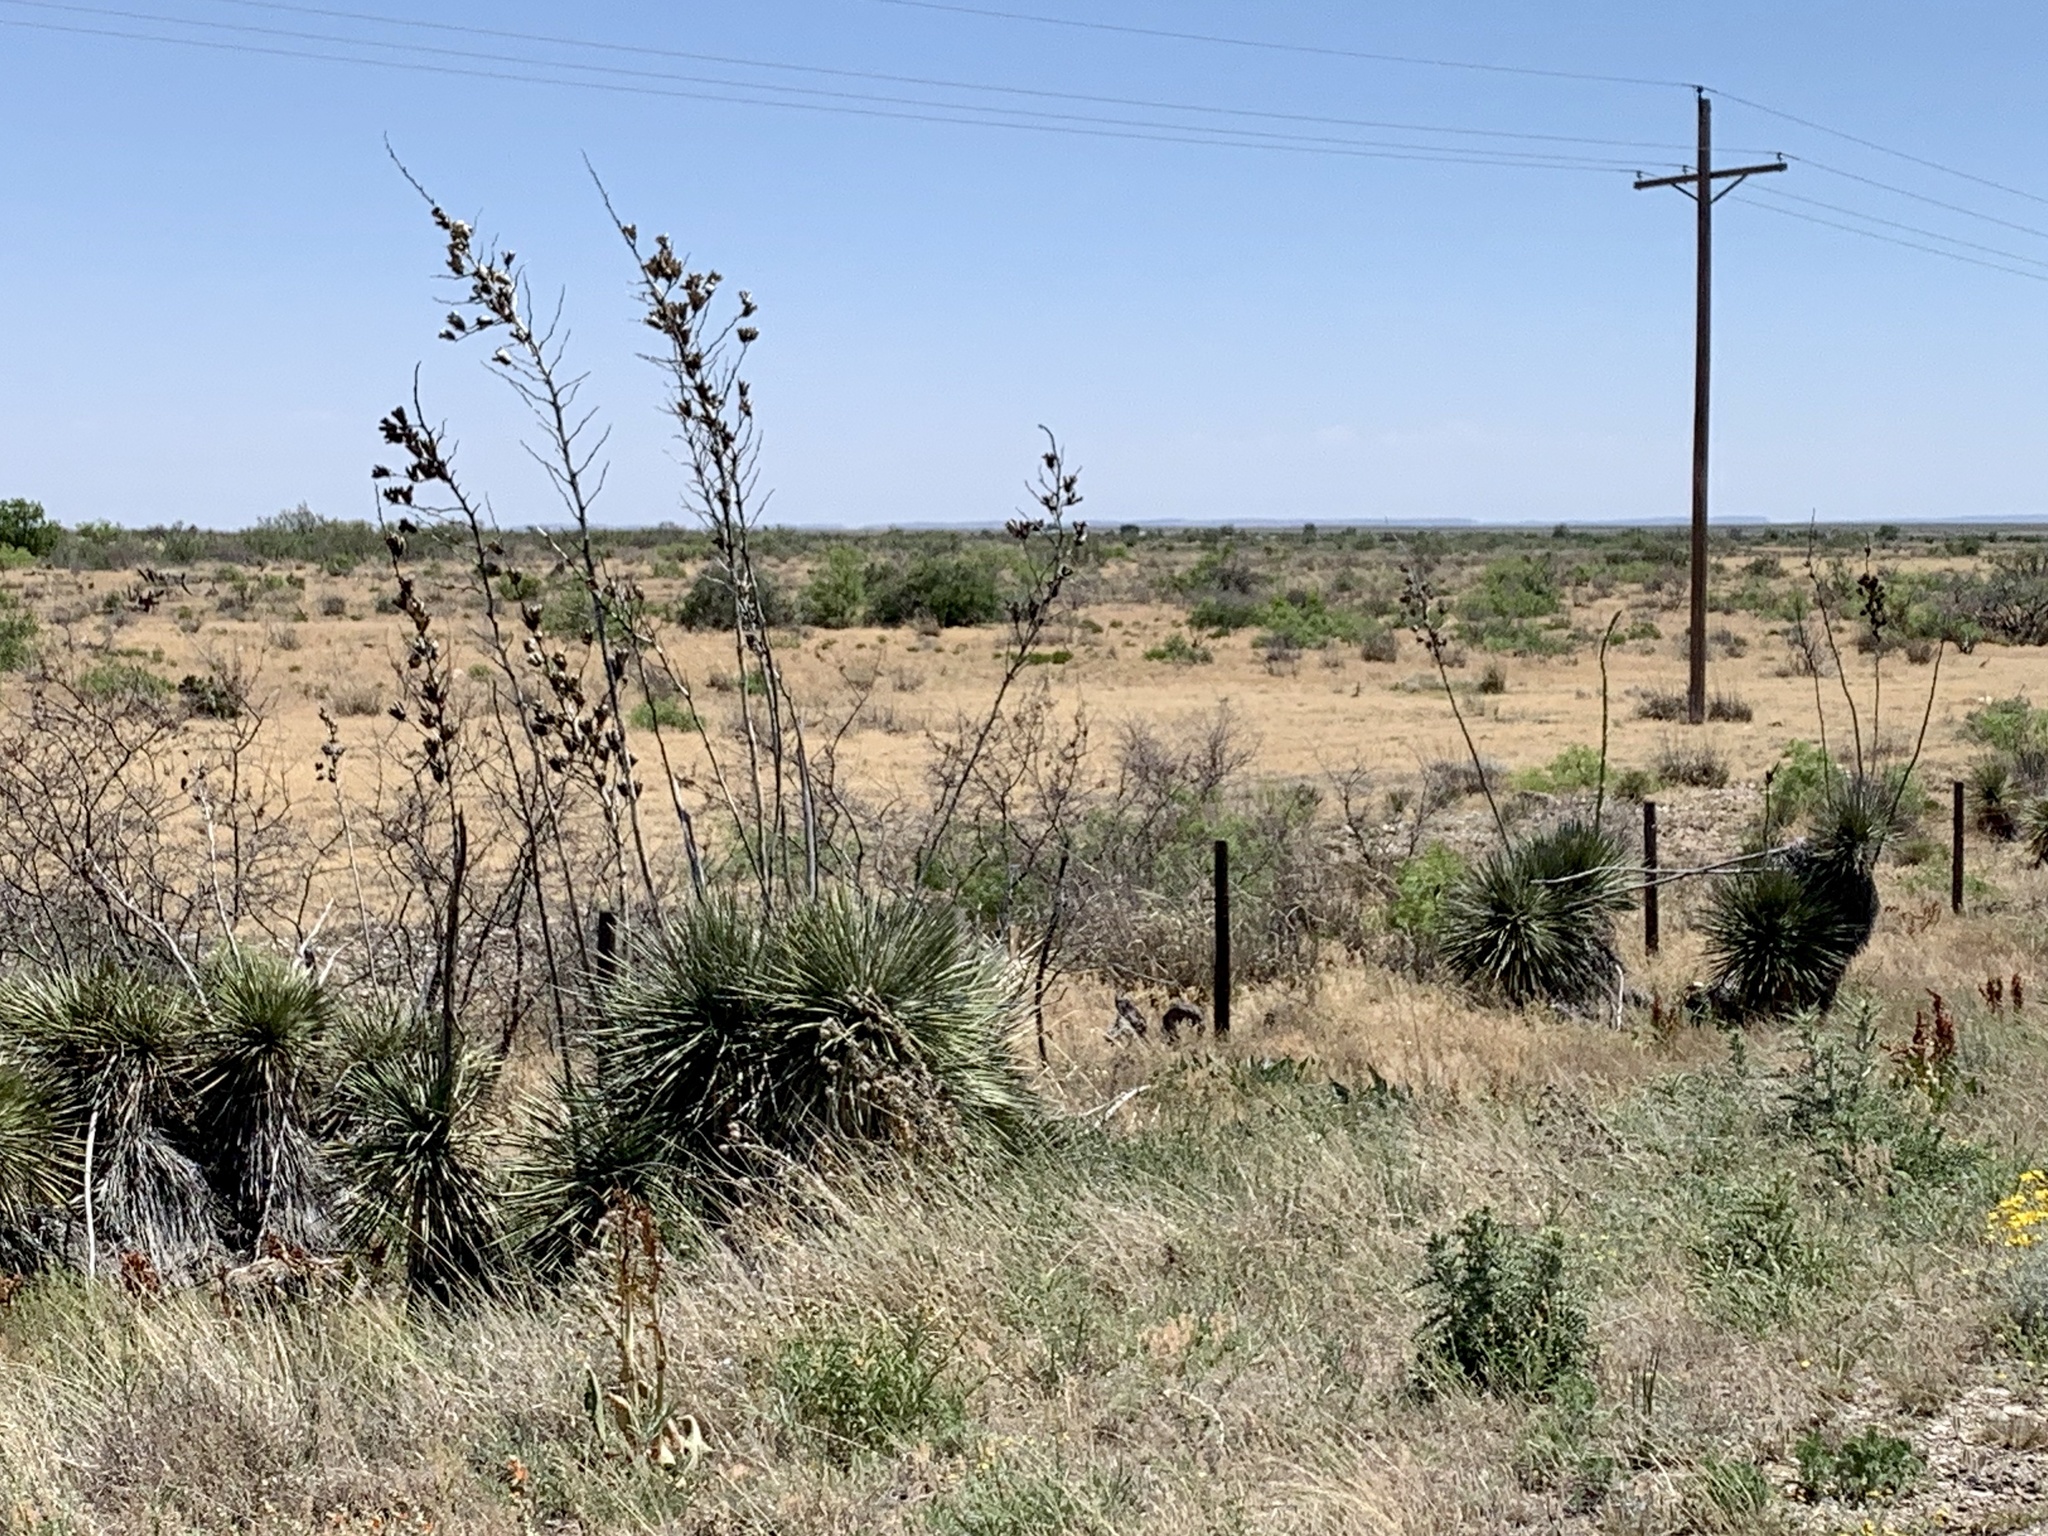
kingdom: Plantae
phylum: Tracheophyta
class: Liliopsida
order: Asparagales
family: Asparagaceae
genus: Yucca
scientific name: Yucca elata
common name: Palmella
